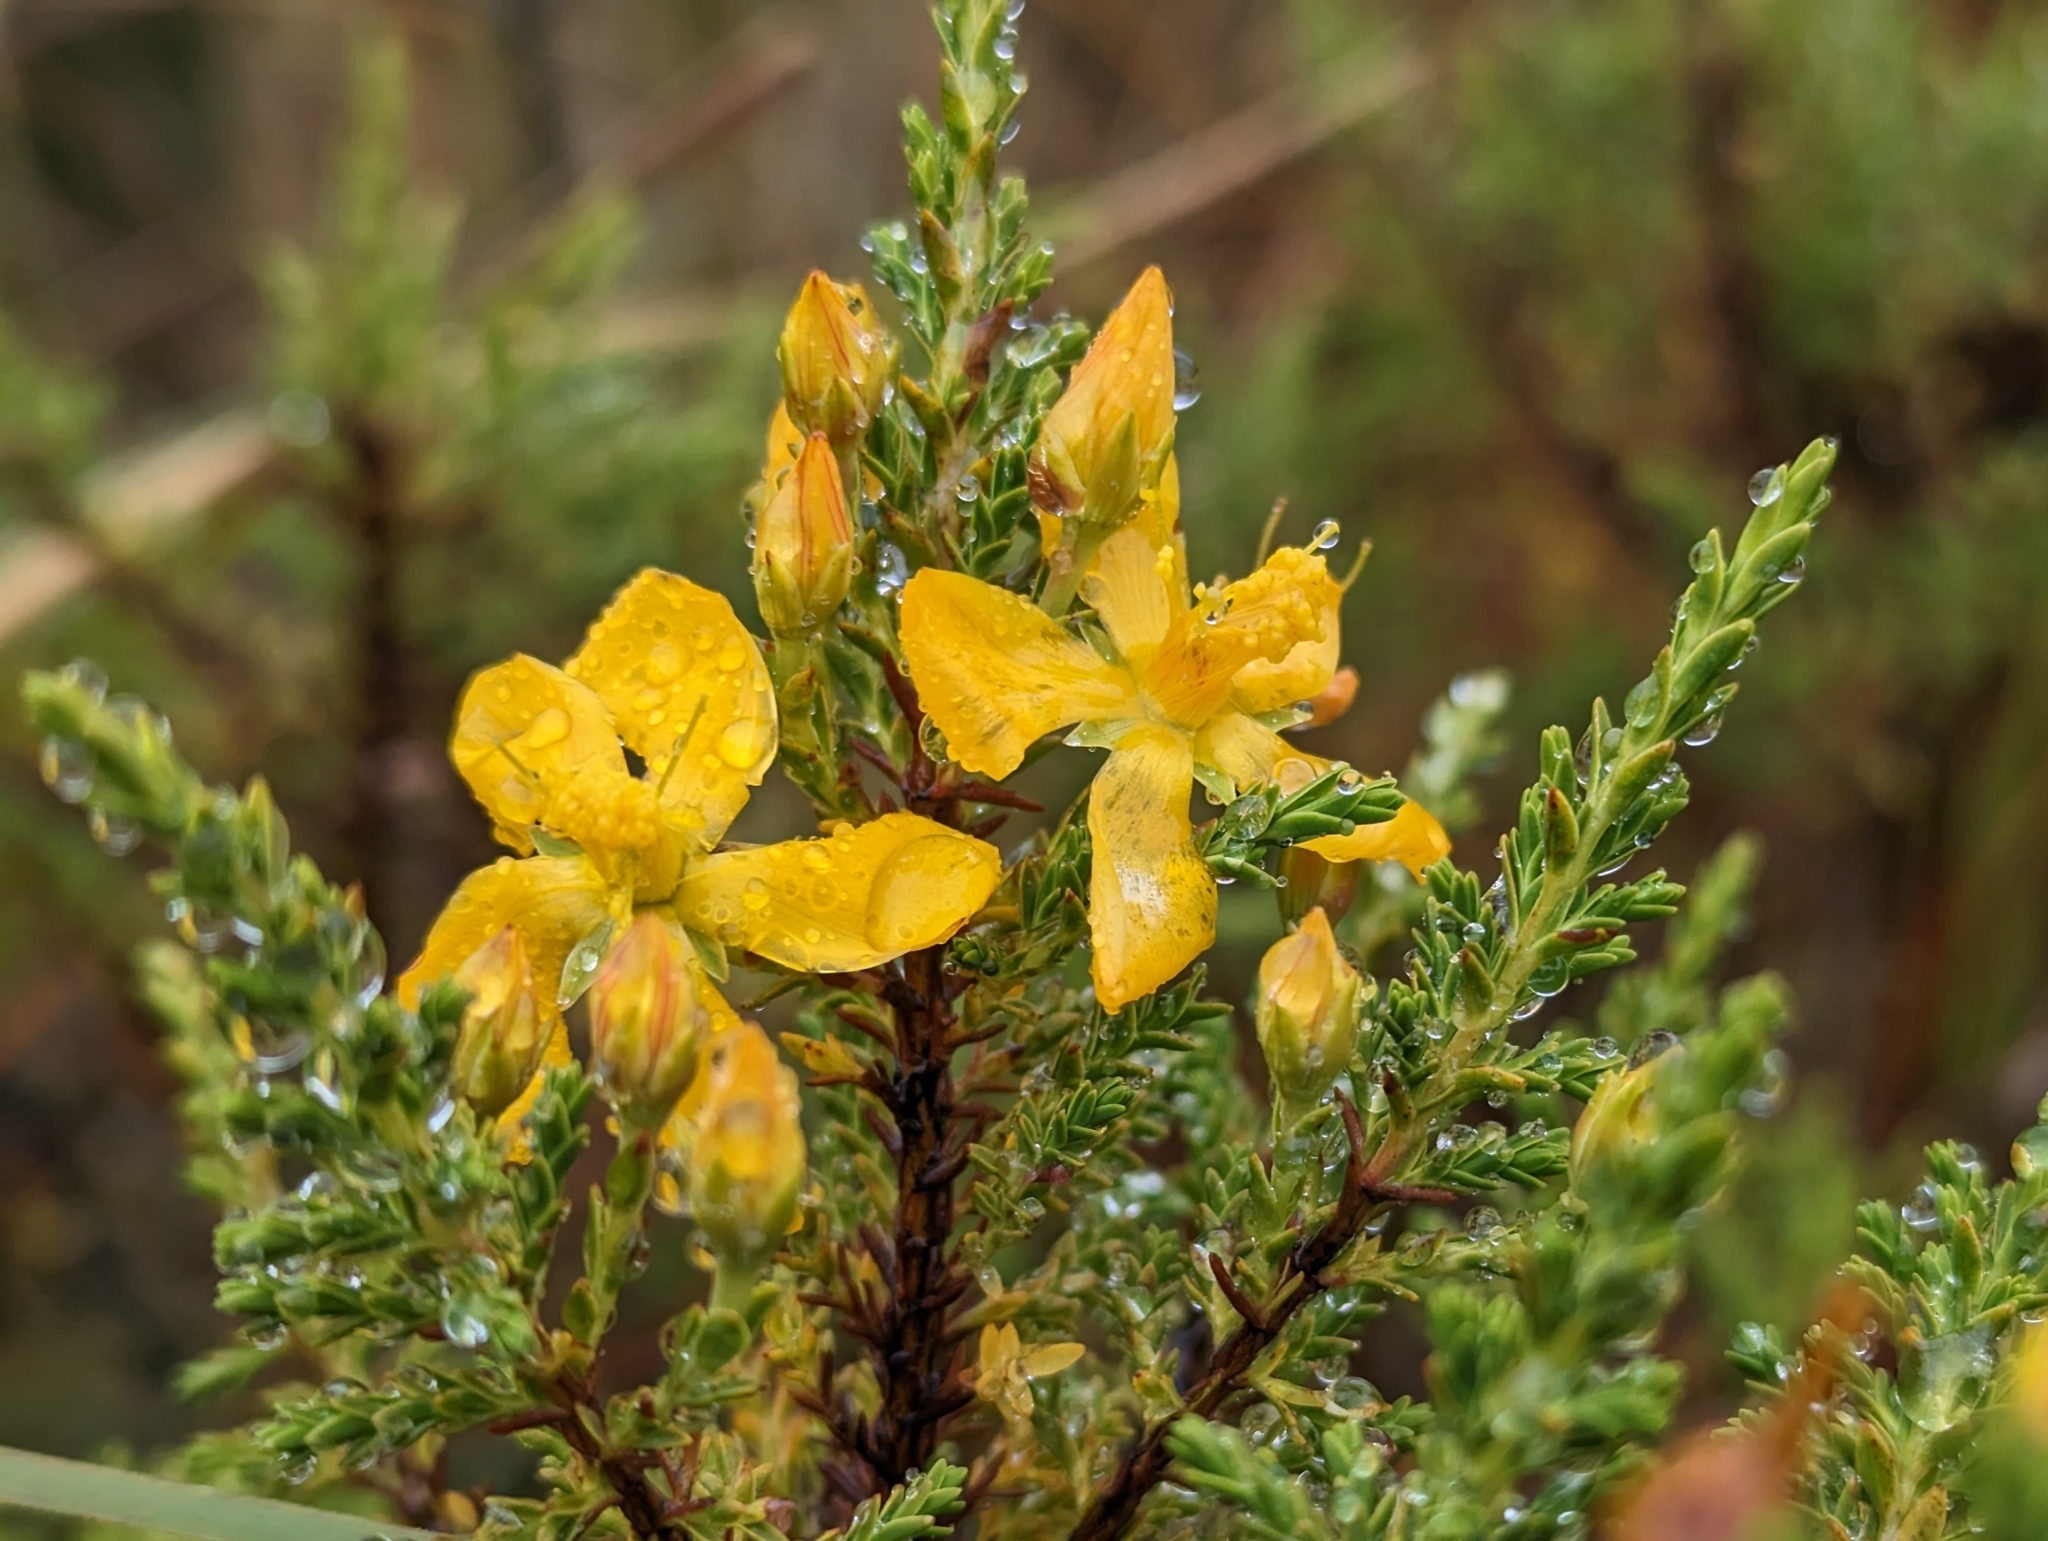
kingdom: Plantae
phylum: Tracheophyta
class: Magnoliopsida
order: Malpighiales
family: Hypericaceae
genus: Hypericum
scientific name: Hypericum laricifolium
